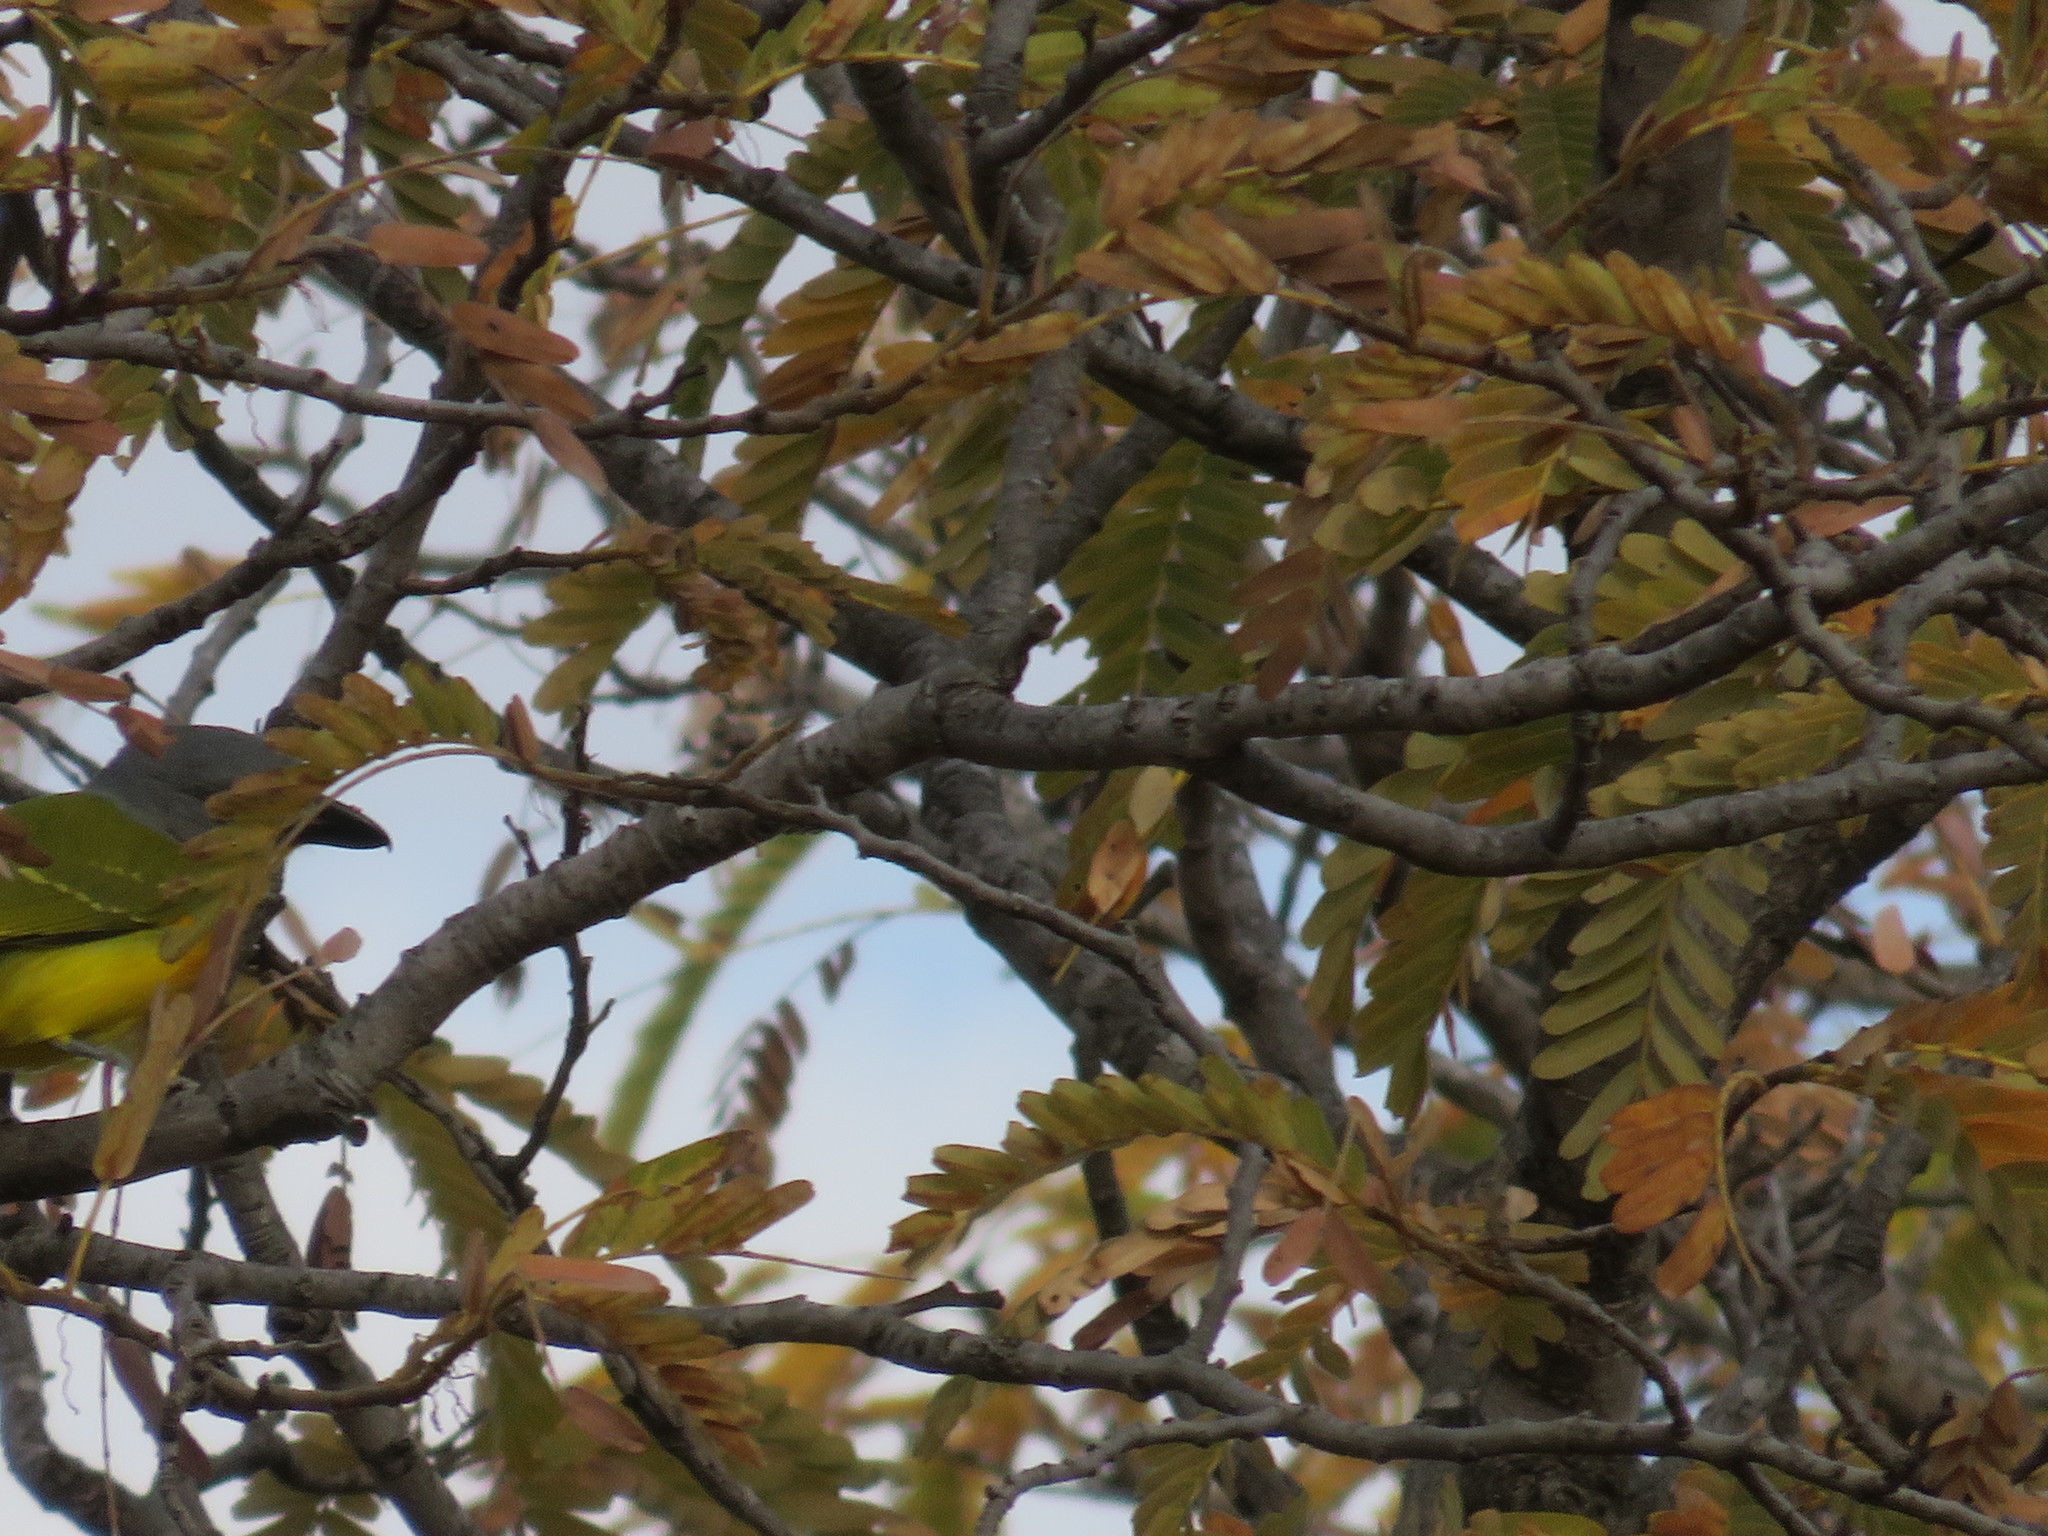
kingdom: Animalia
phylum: Chordata
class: Aves
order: Passeriformes
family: Malaconotidae
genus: Malaconotus
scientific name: Malaconotus blanchoti
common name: Grey-headed bushshrike
